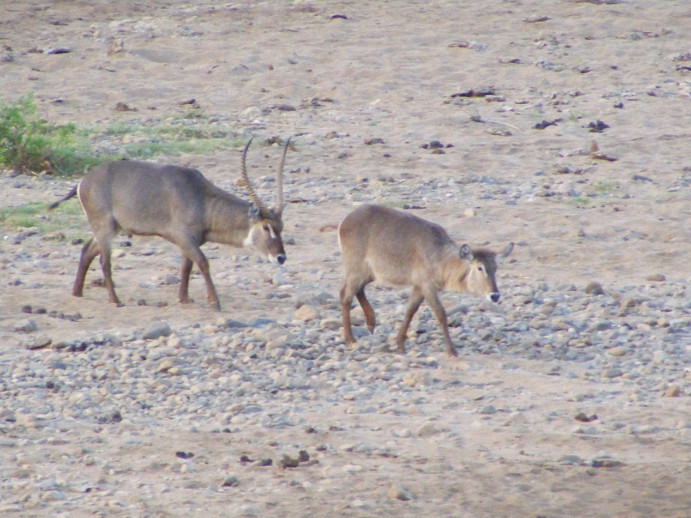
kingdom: Animalia
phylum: Chordata
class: Mammalia
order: Artiodactyla
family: Bovidae
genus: Kobus
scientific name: Kobus ellipsiprymnus
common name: Waterbuck
